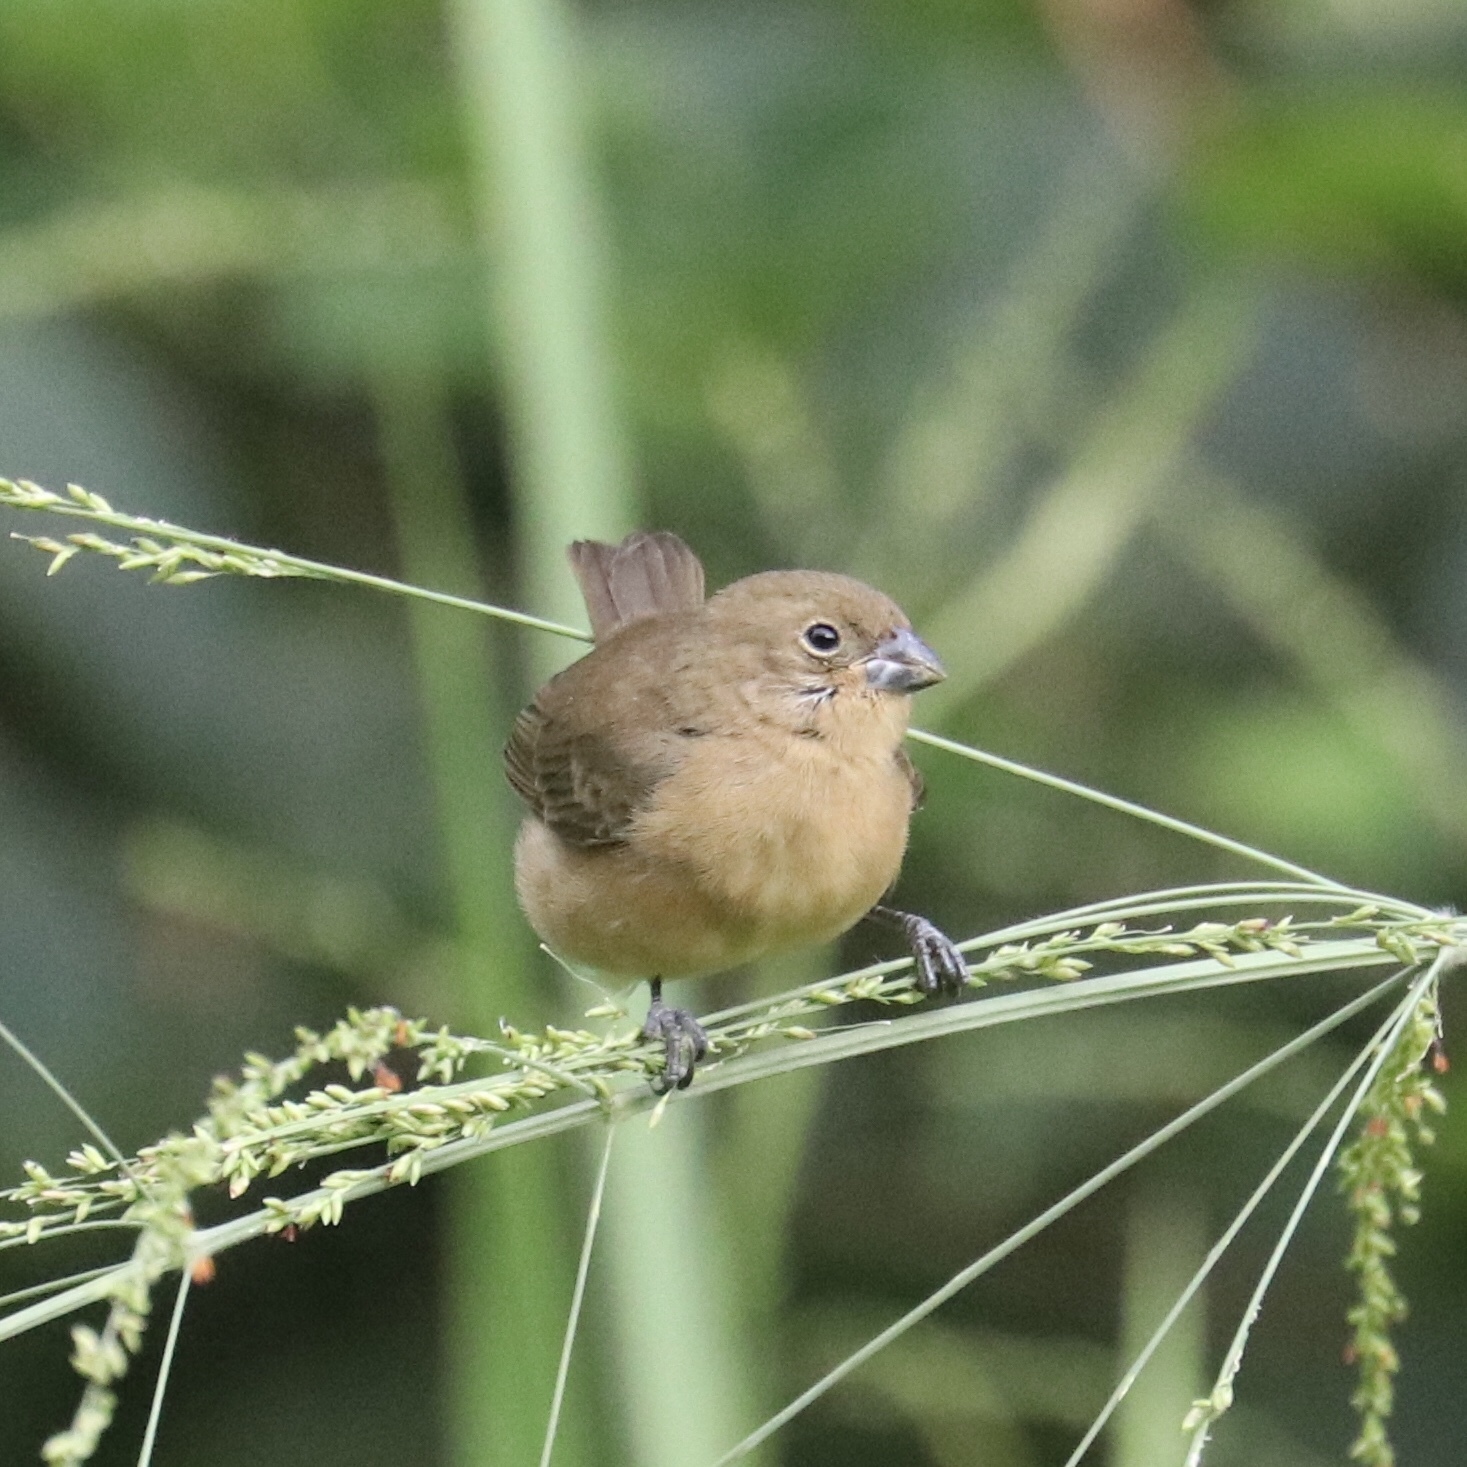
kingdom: Animalia
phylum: Chordata
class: Aves
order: Passeriformes
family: Thraupidae
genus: Sporophila
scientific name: Sporophila nigricollis
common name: Yellow-bellied seedeater
